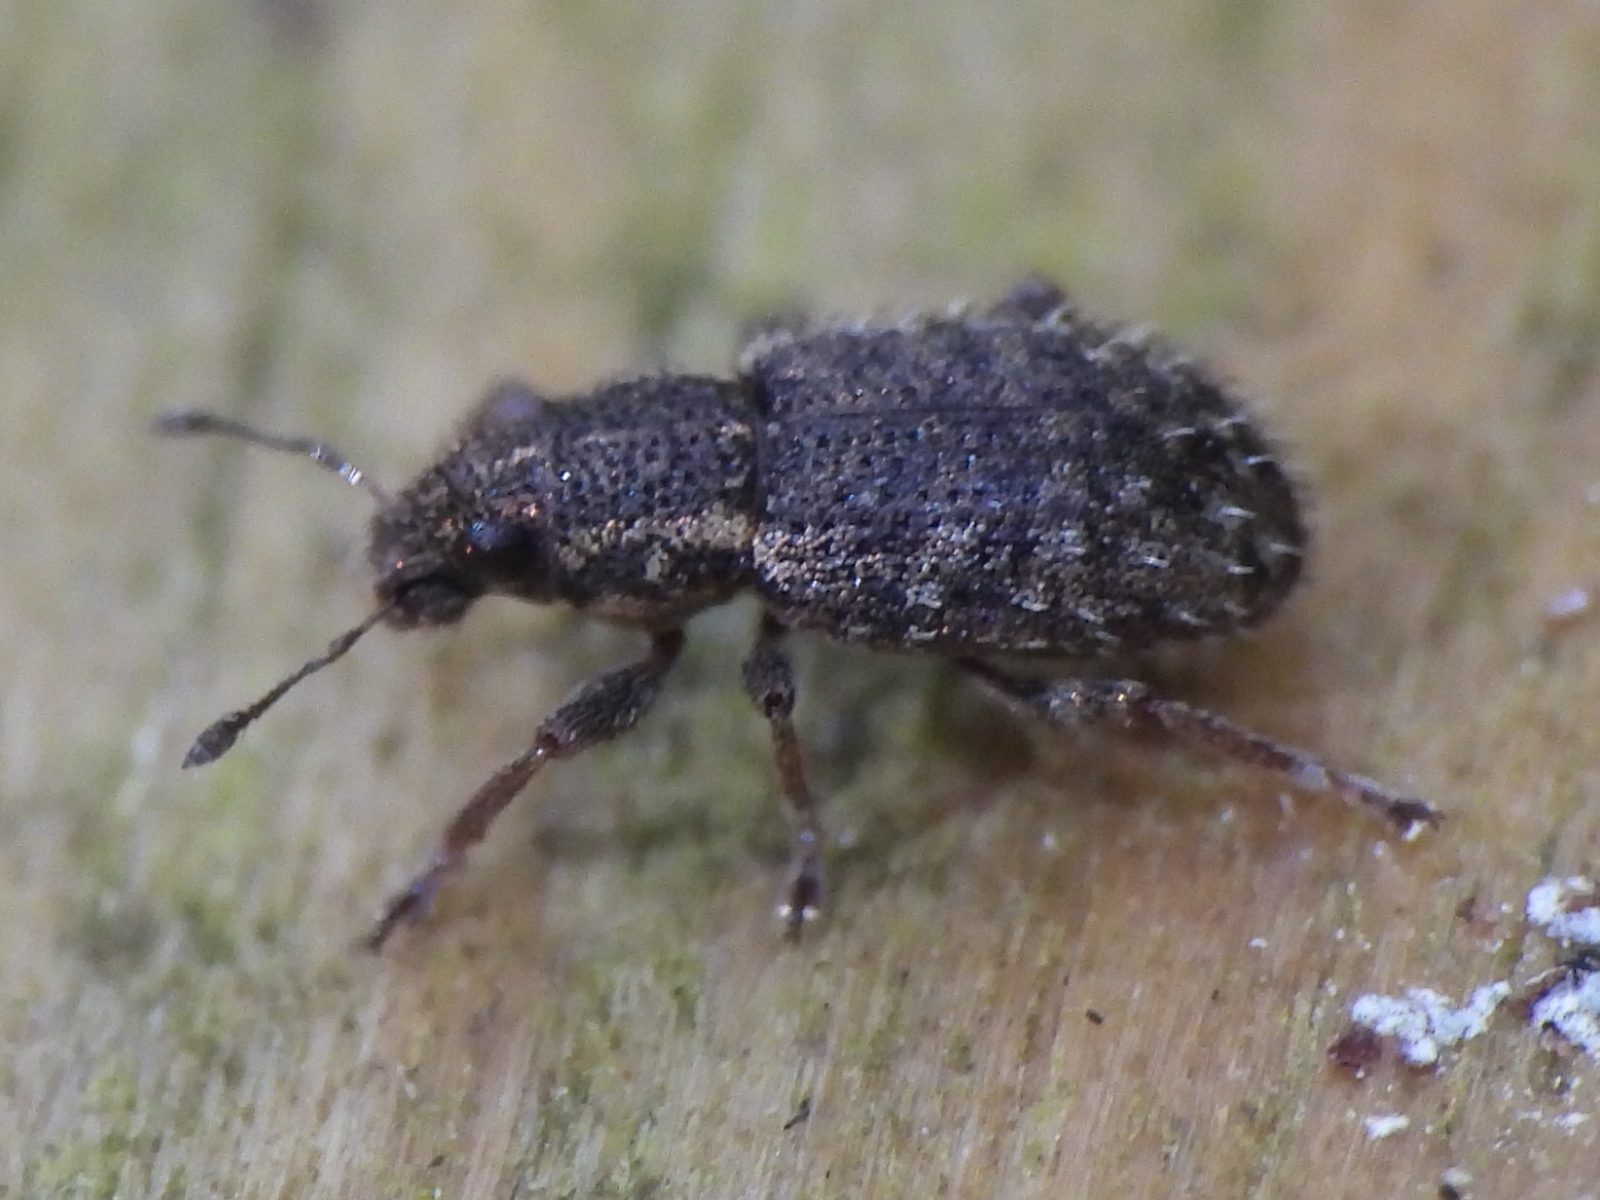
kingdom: Animalia
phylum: Arthropoda
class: Insecta
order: Coleoptera
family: Curculionidae
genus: Sitona
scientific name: Sitona hispidulus
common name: Clover weevil
